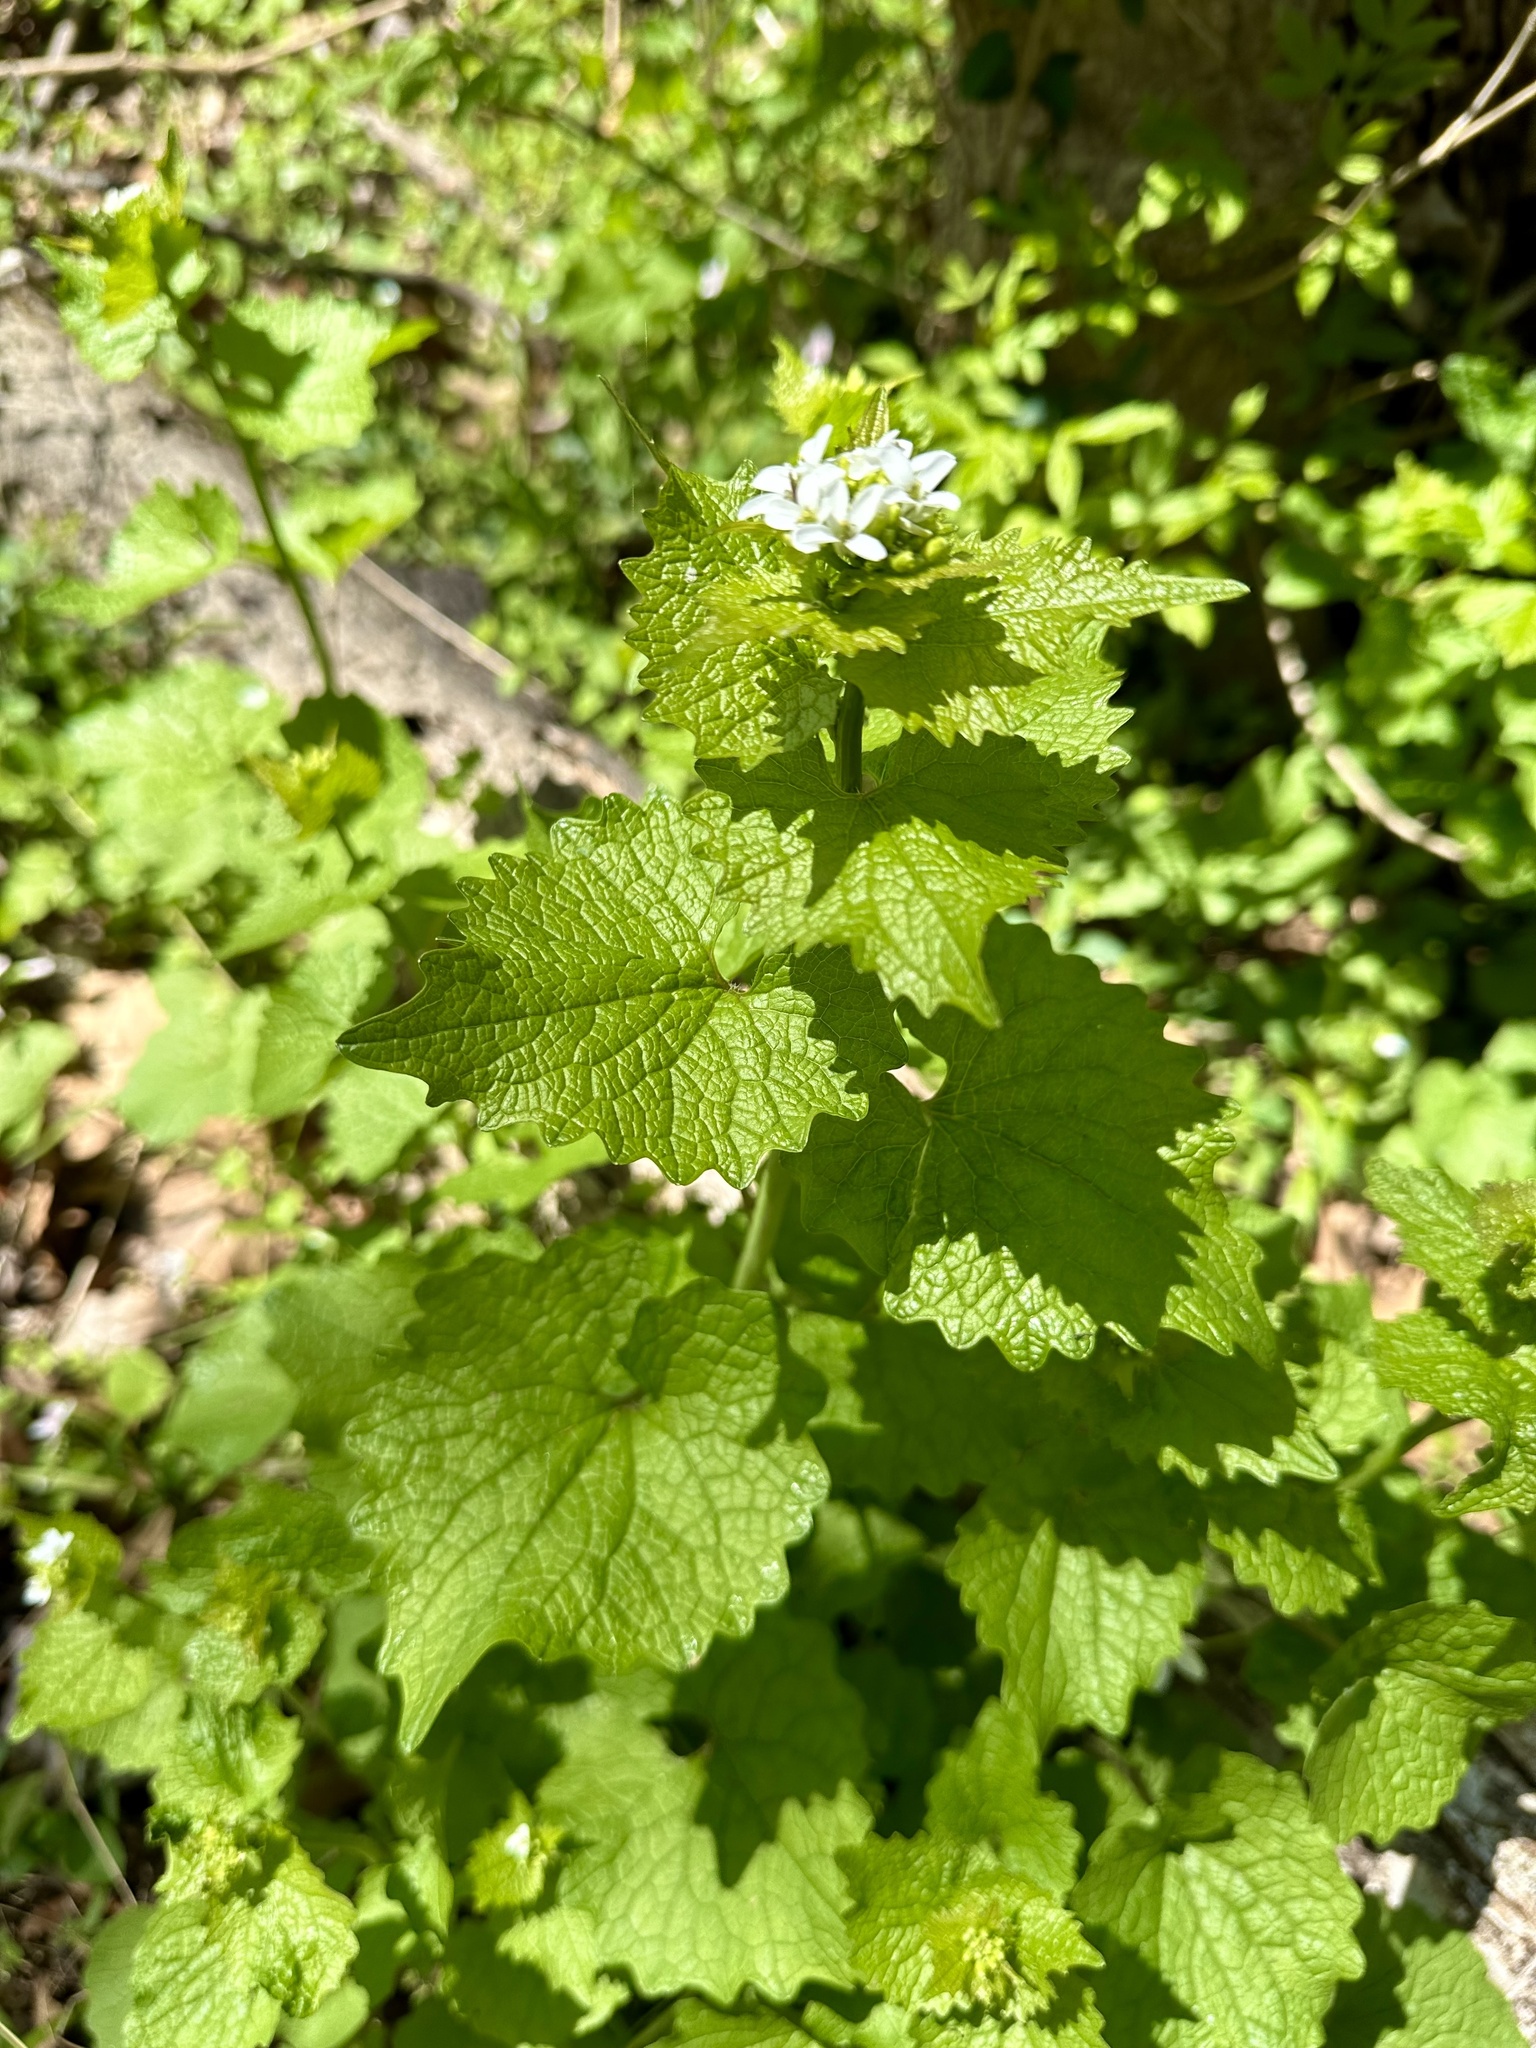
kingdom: Plantae
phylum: Tracheophyta
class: Magnoliopsida
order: Brassicales
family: Brassicaceae
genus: Alliaria
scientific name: Alliaria petiolata
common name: Garlic mustard
